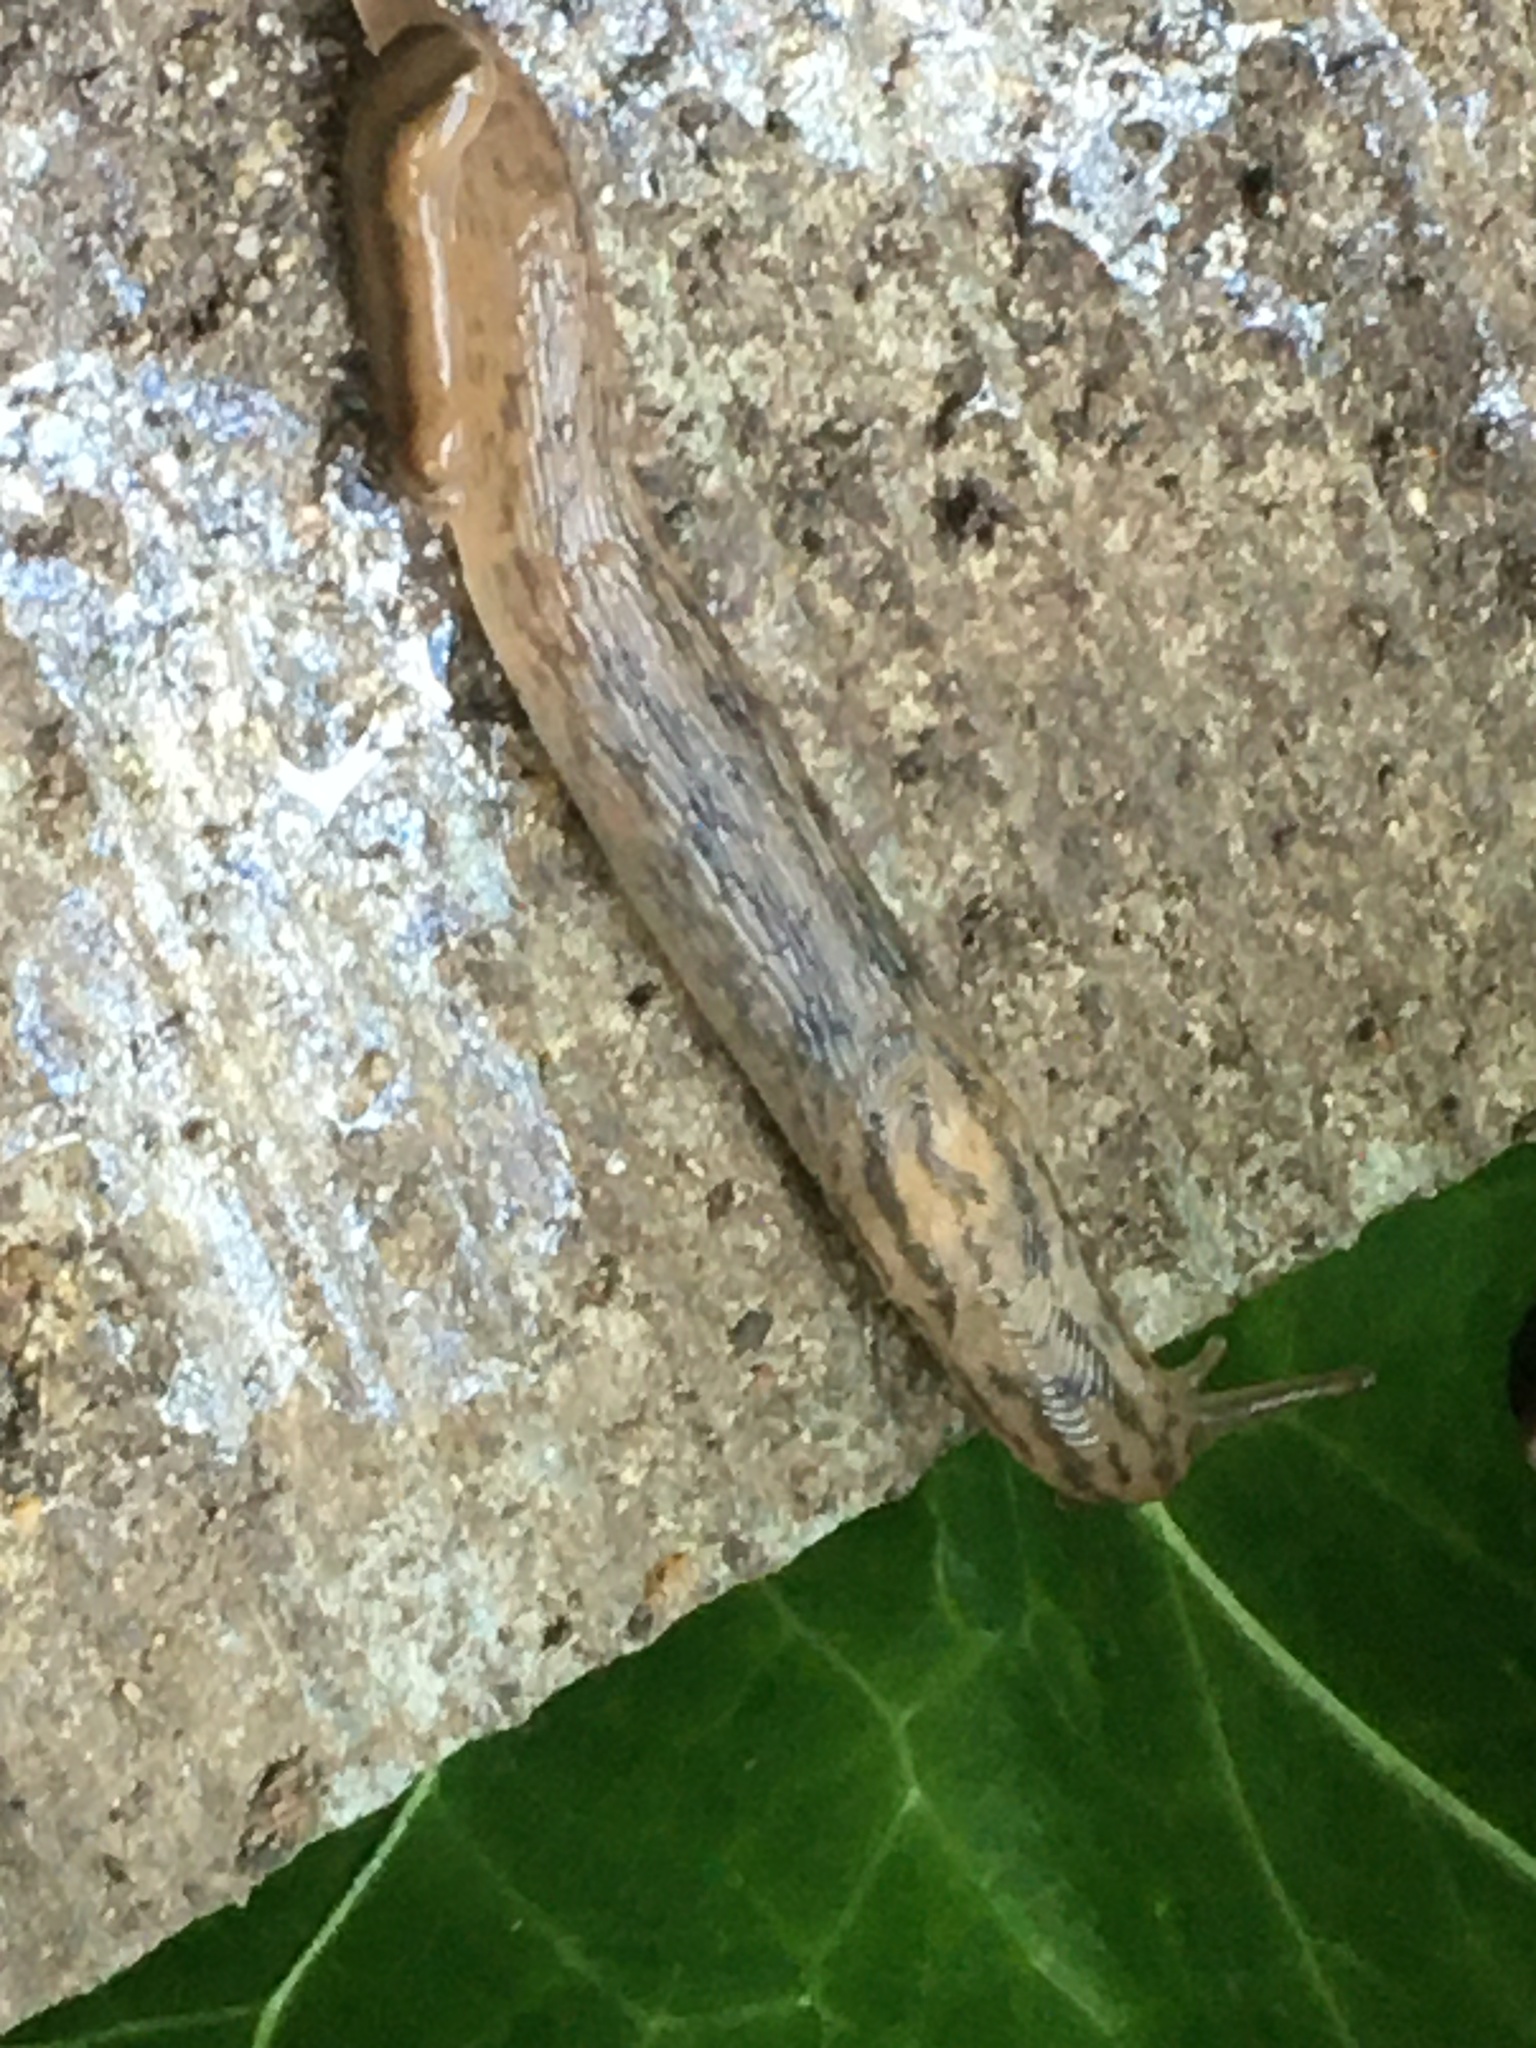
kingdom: Animalia
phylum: Mollusca
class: Gastropoda
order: Stylommatophora
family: Limacidae
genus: Ambigolimax
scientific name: Ambigolimax
